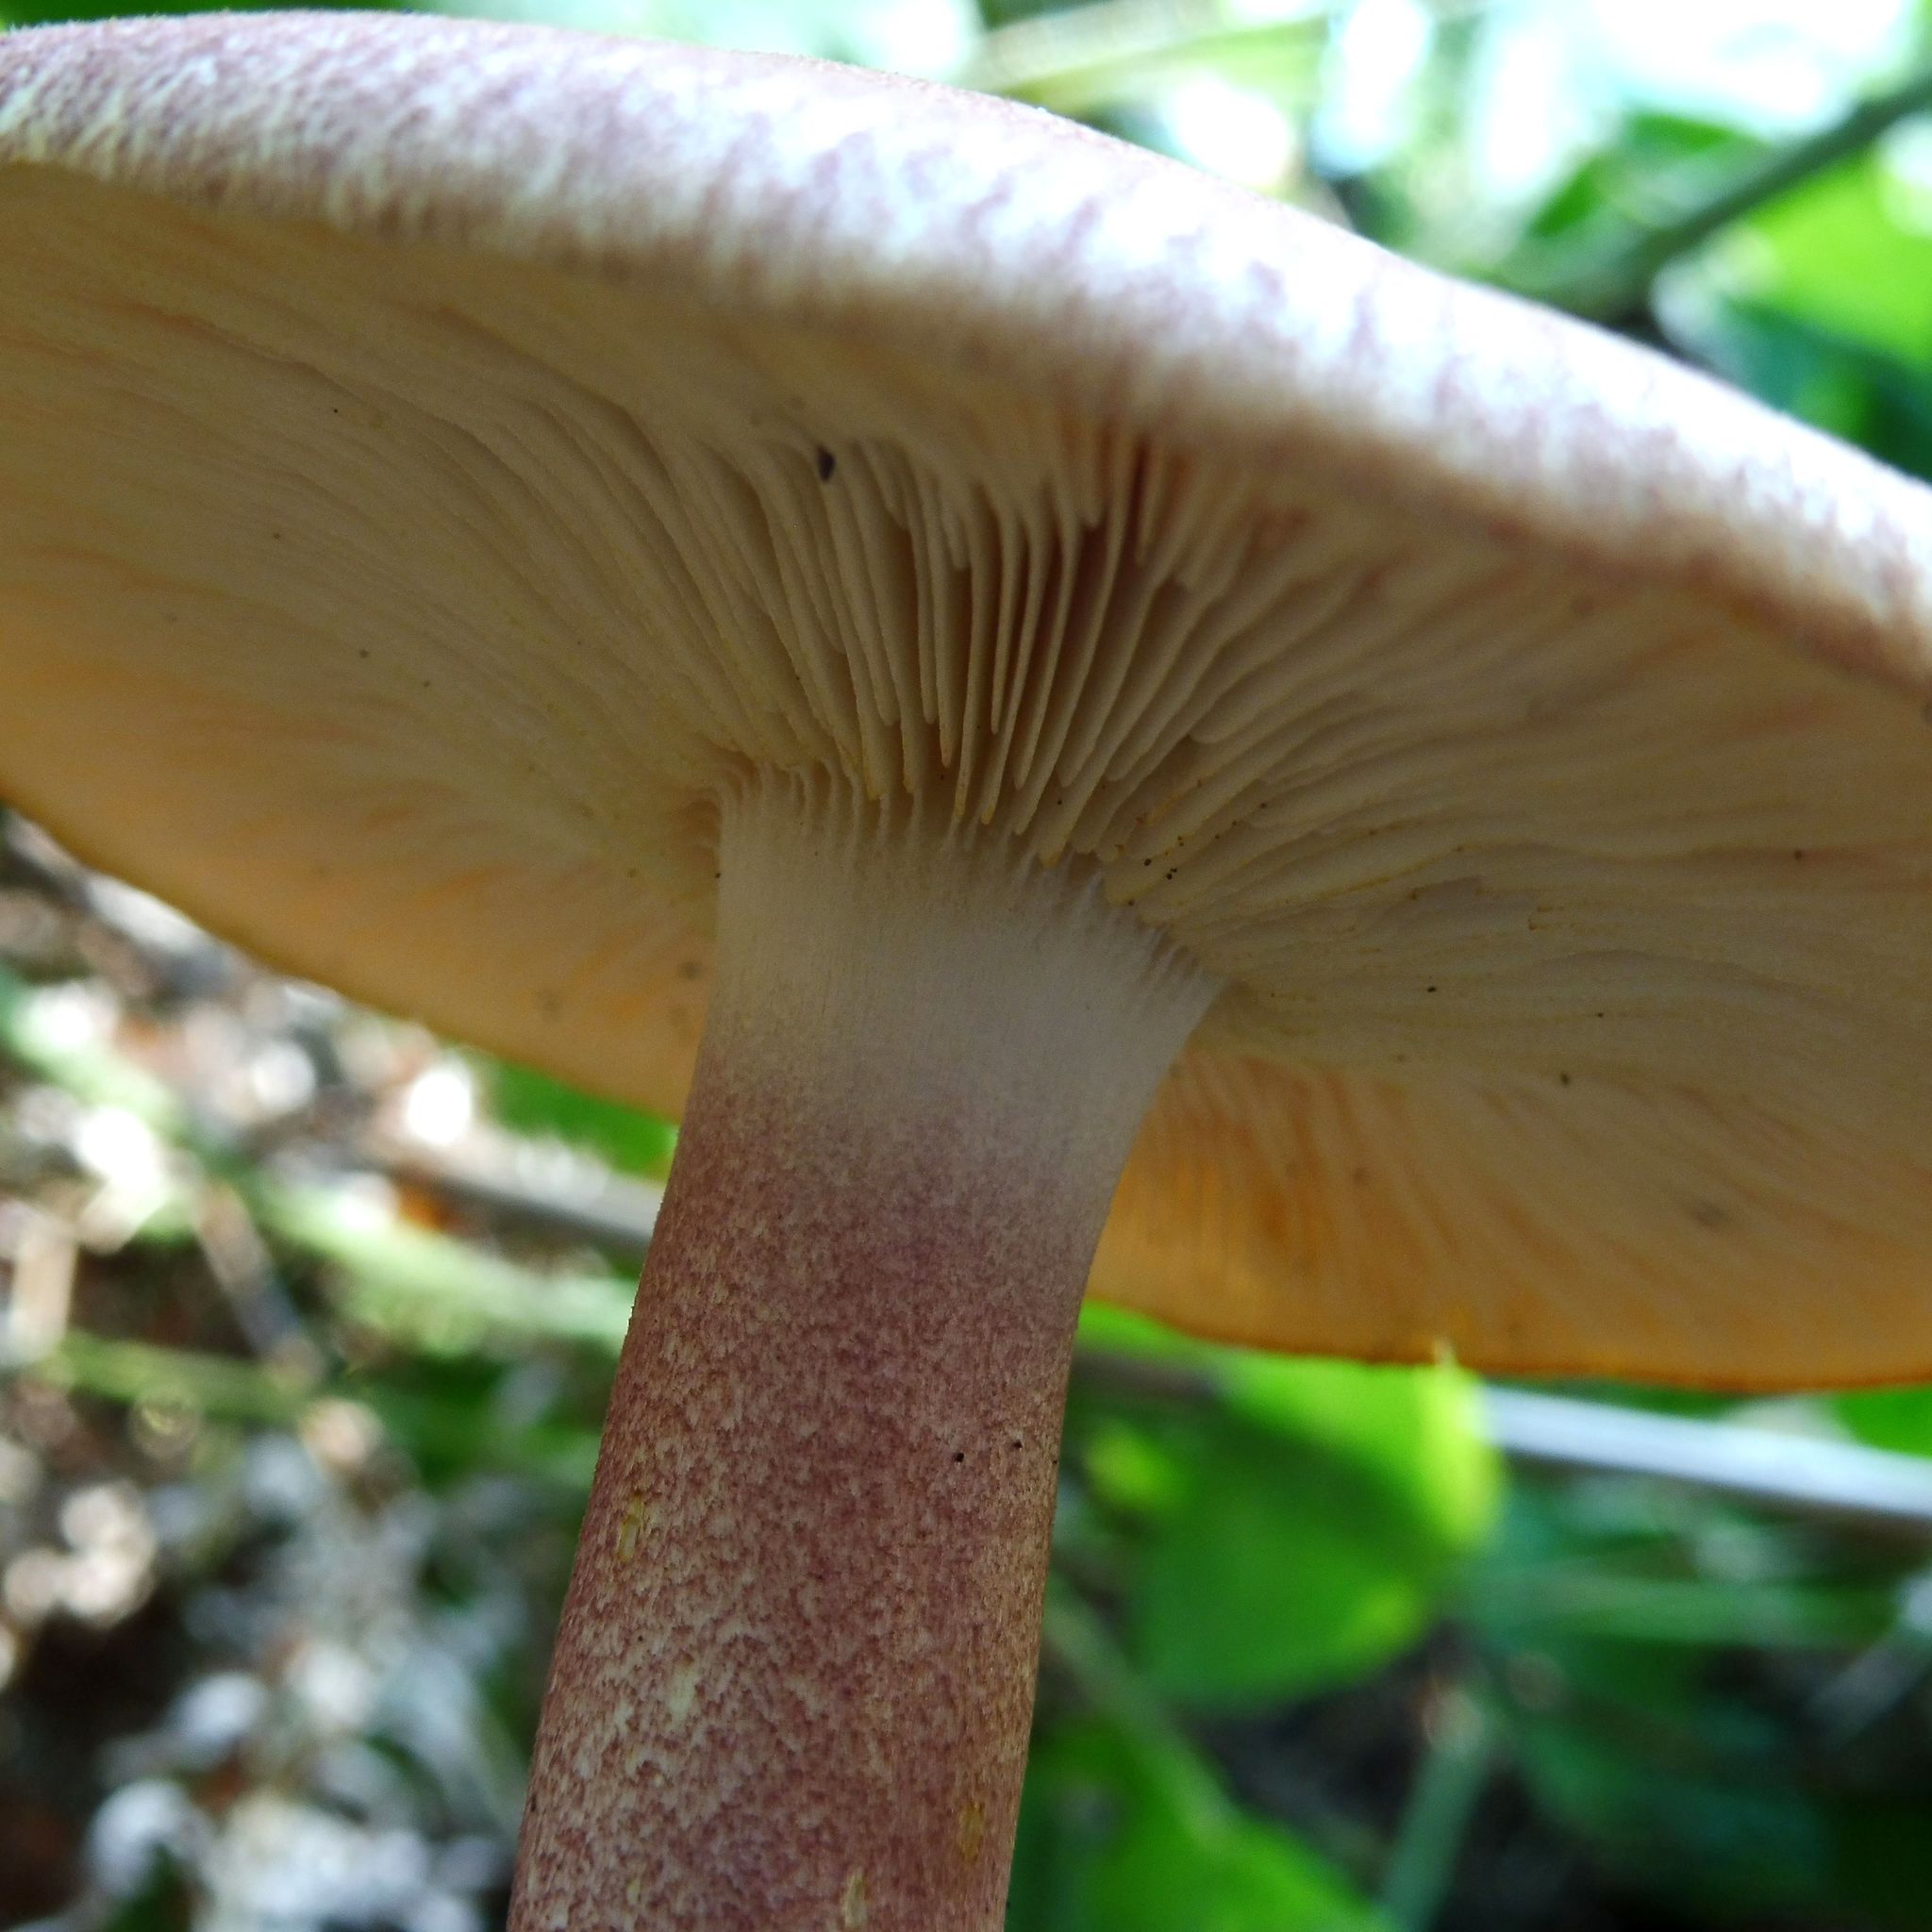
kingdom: Fungi
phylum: Basidiomycota
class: Agaricomycetes
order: Agaricales
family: Tricholomataceae
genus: Tricholomopsis
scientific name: Tricholomopsis rutilans
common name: Plums and custard
